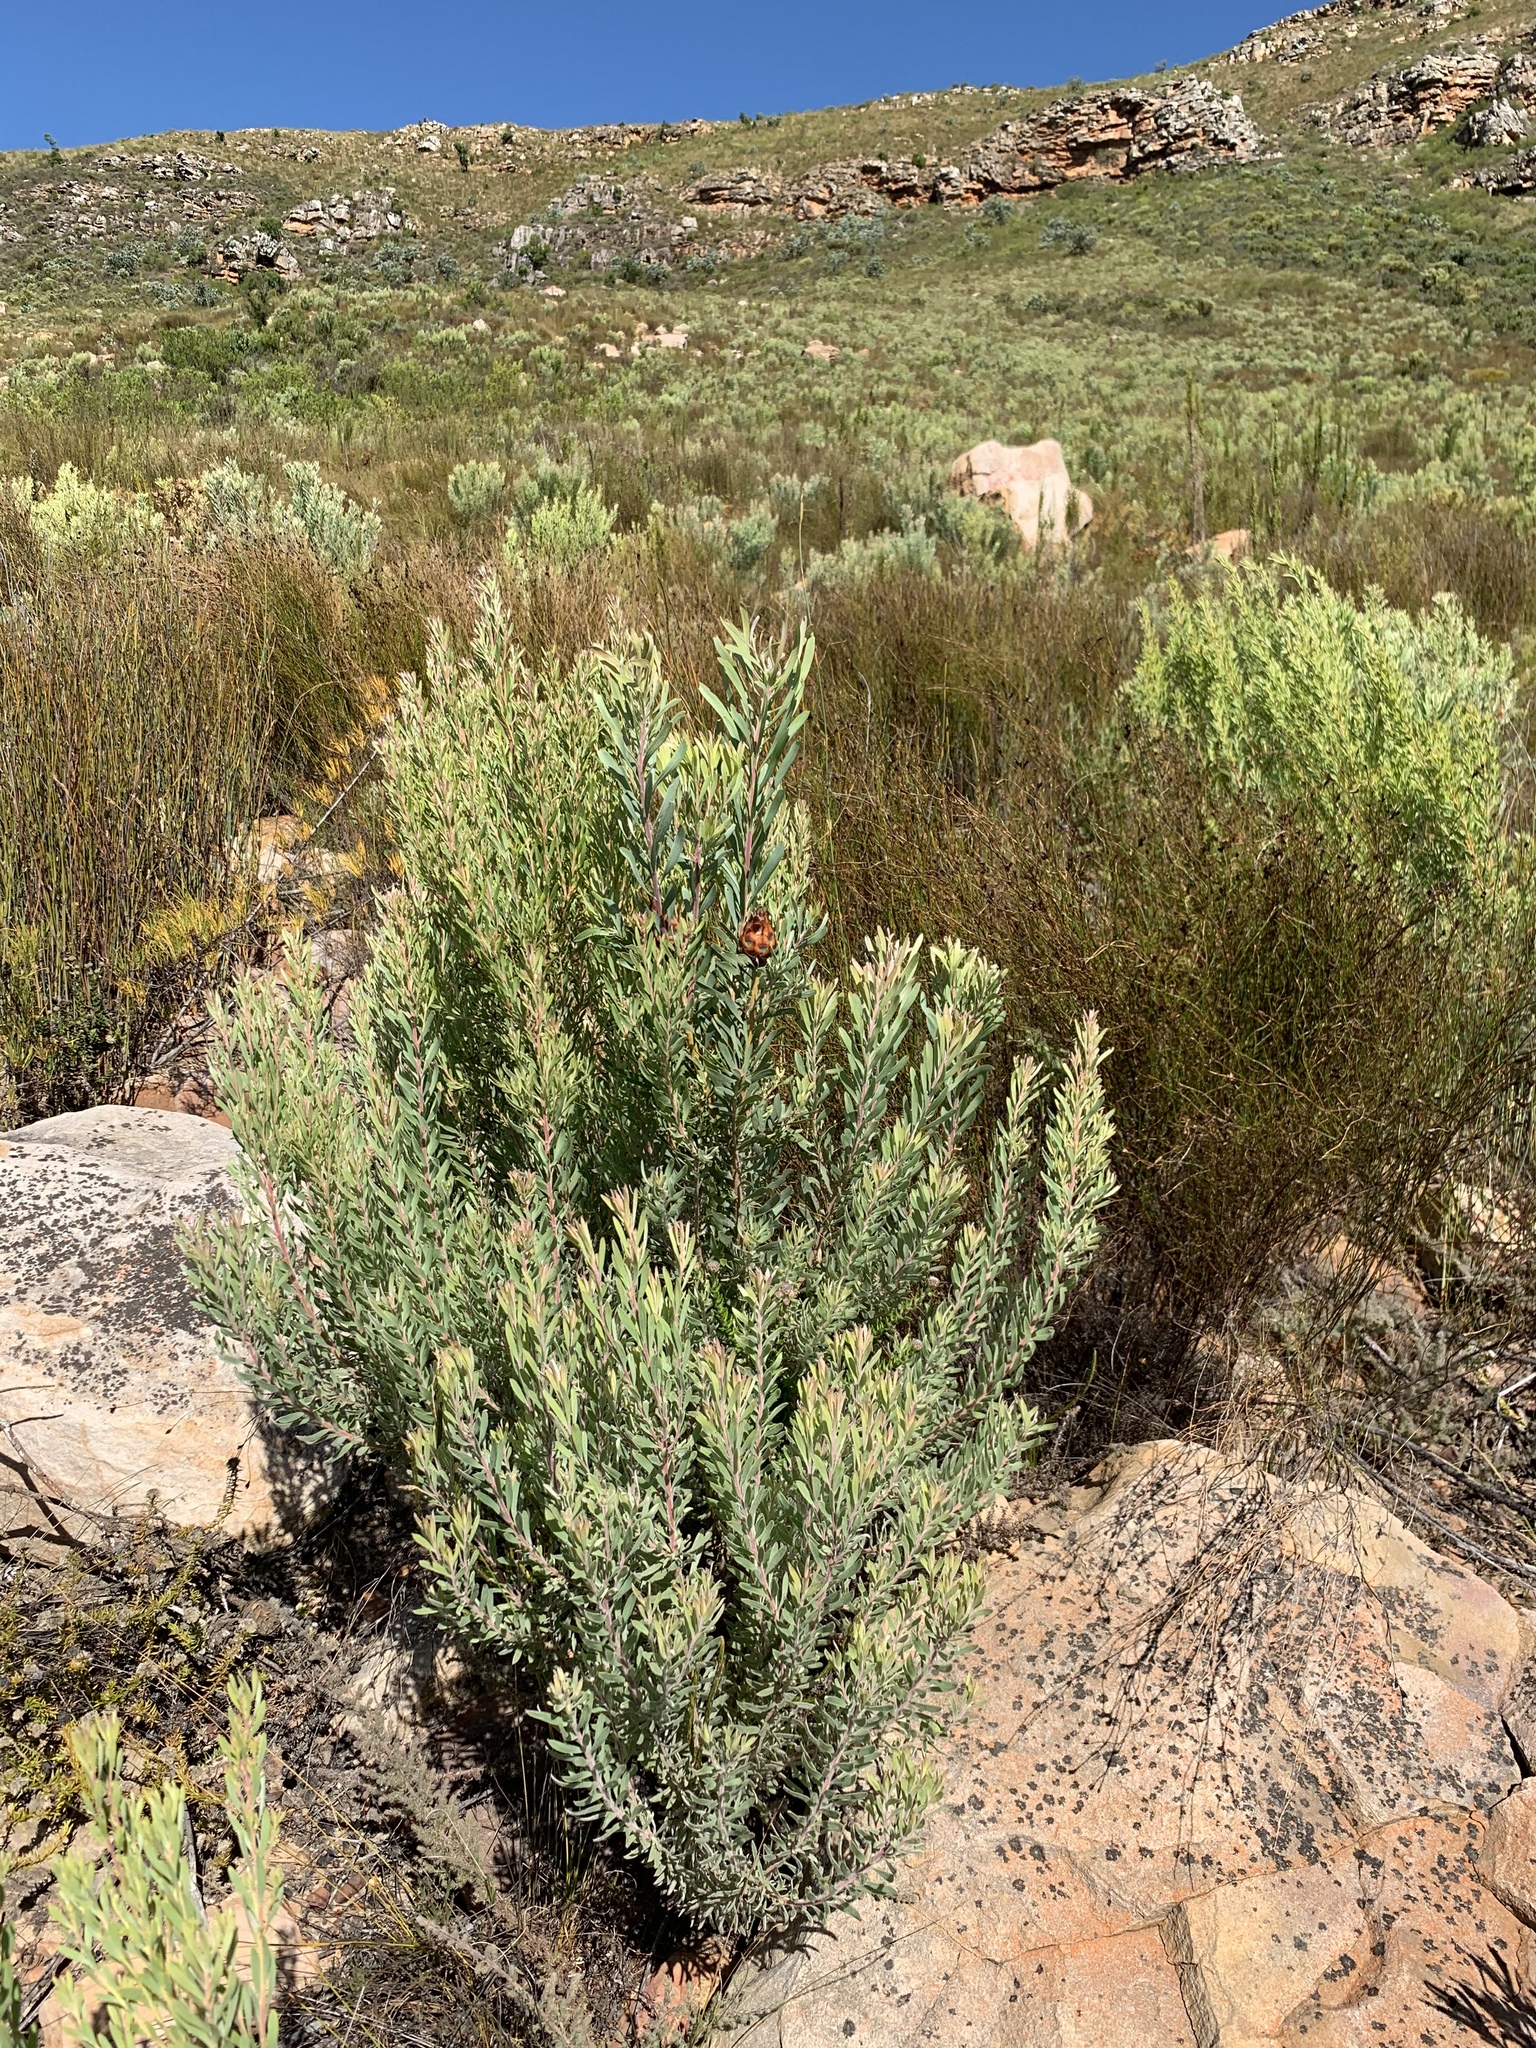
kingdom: Plantae
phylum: Tracheophyta
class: Magnoliopsida
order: Proteales
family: Proteaceae
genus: Leucadendron
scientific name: Leucadendron rubrum
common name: Spinning top
